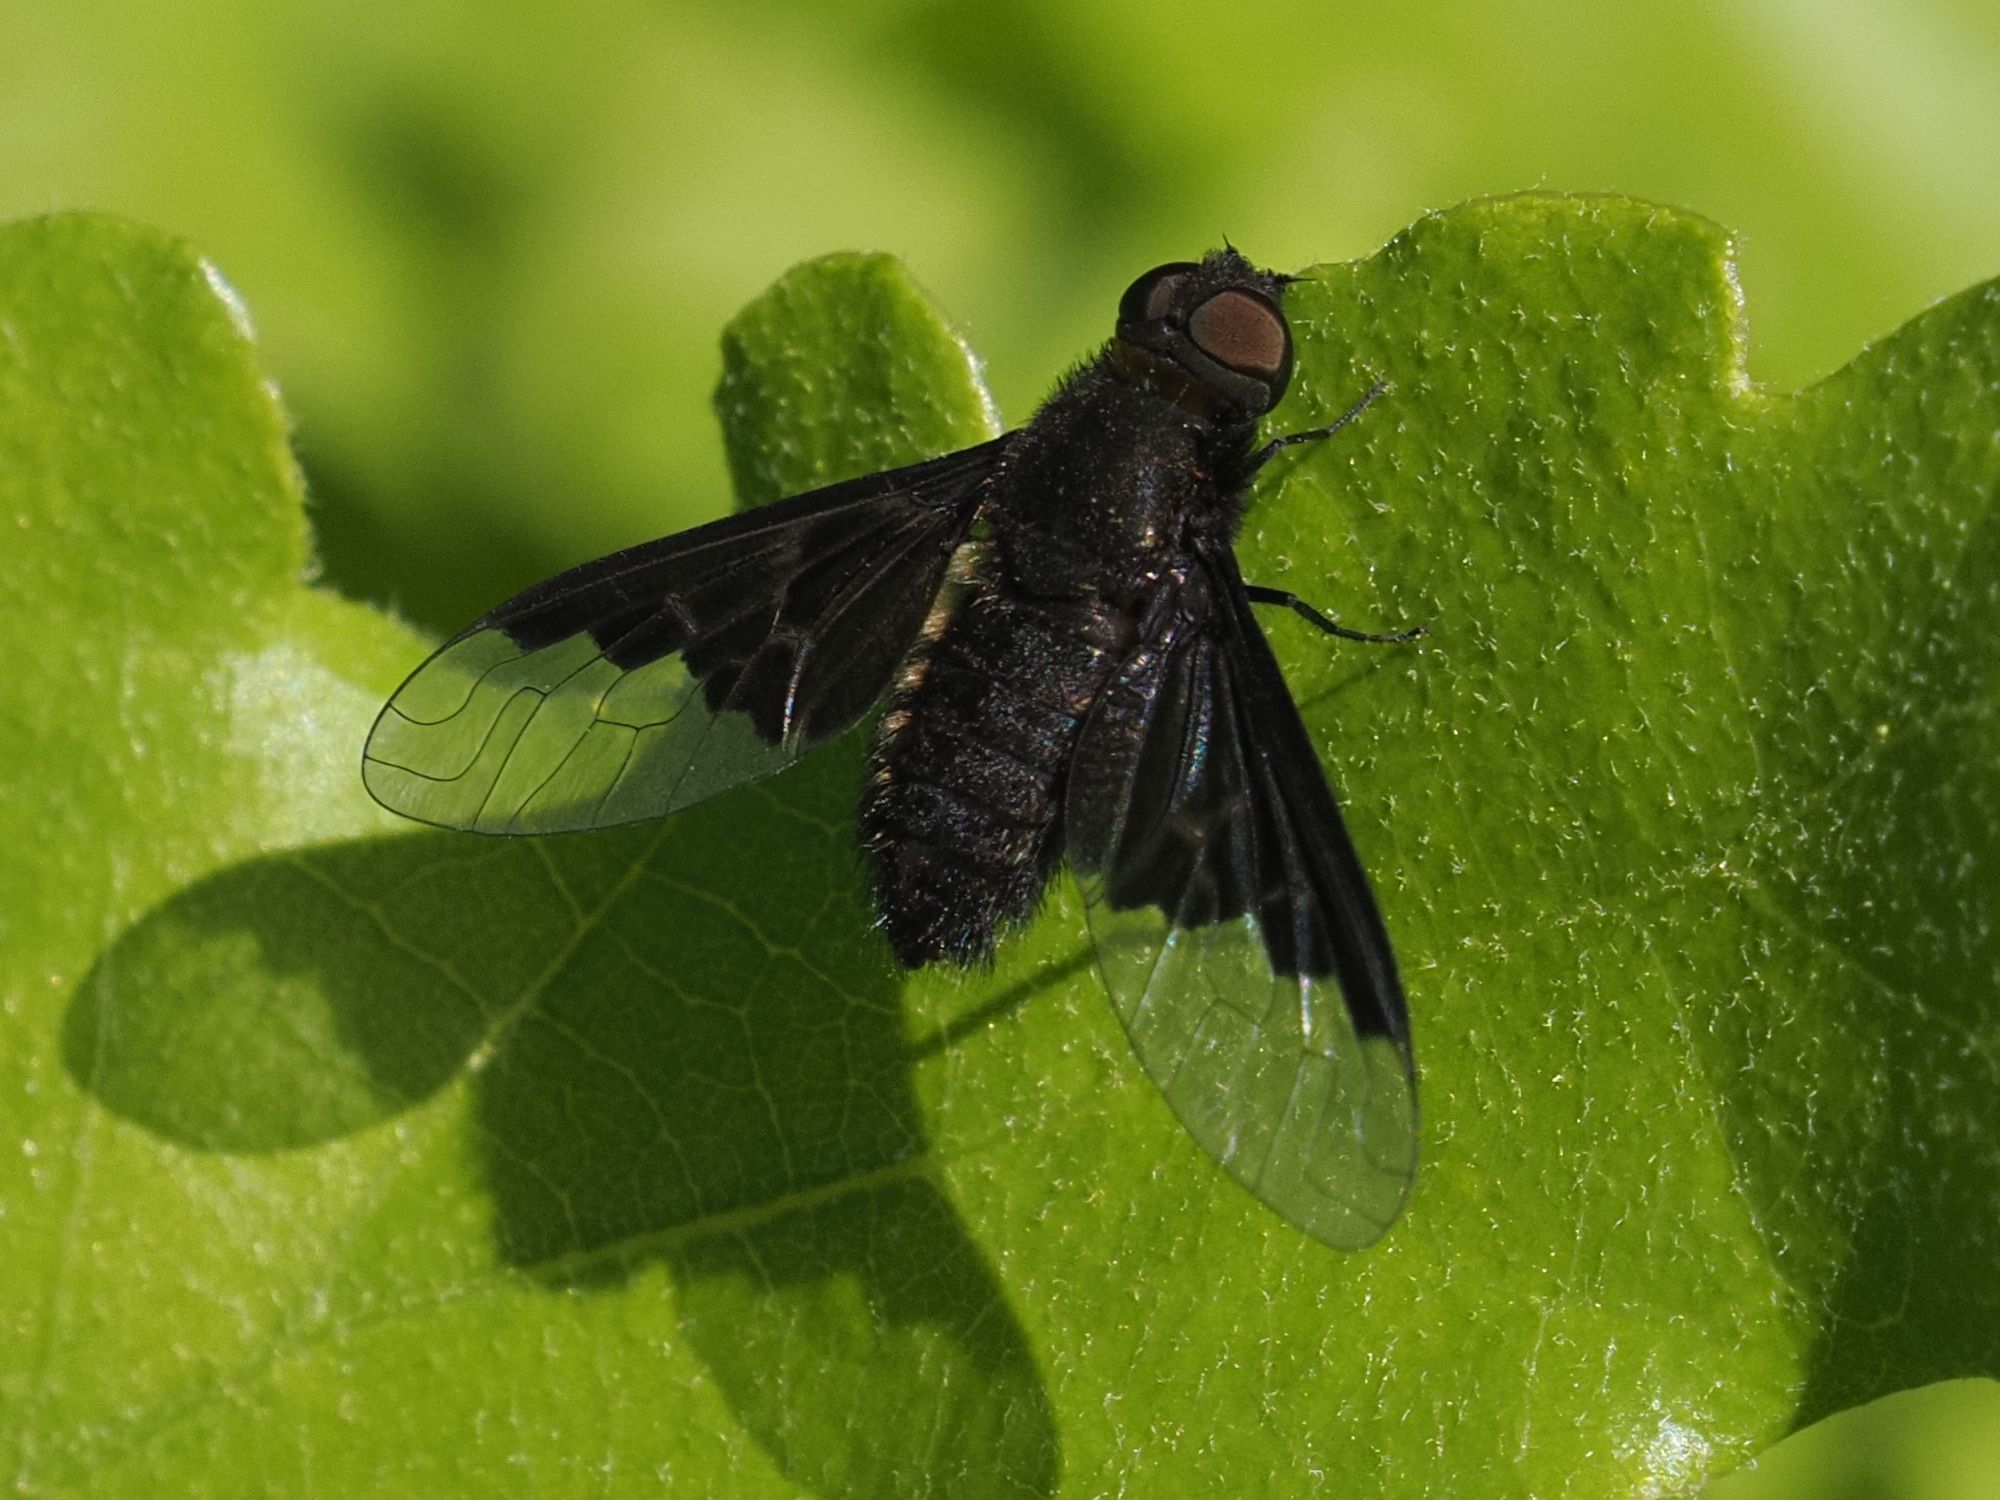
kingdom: Animalia
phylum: Arthropoda
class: Insecta
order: Diptera
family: Bombyliidae
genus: Hemipenthes
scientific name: Hemipenthes morio
